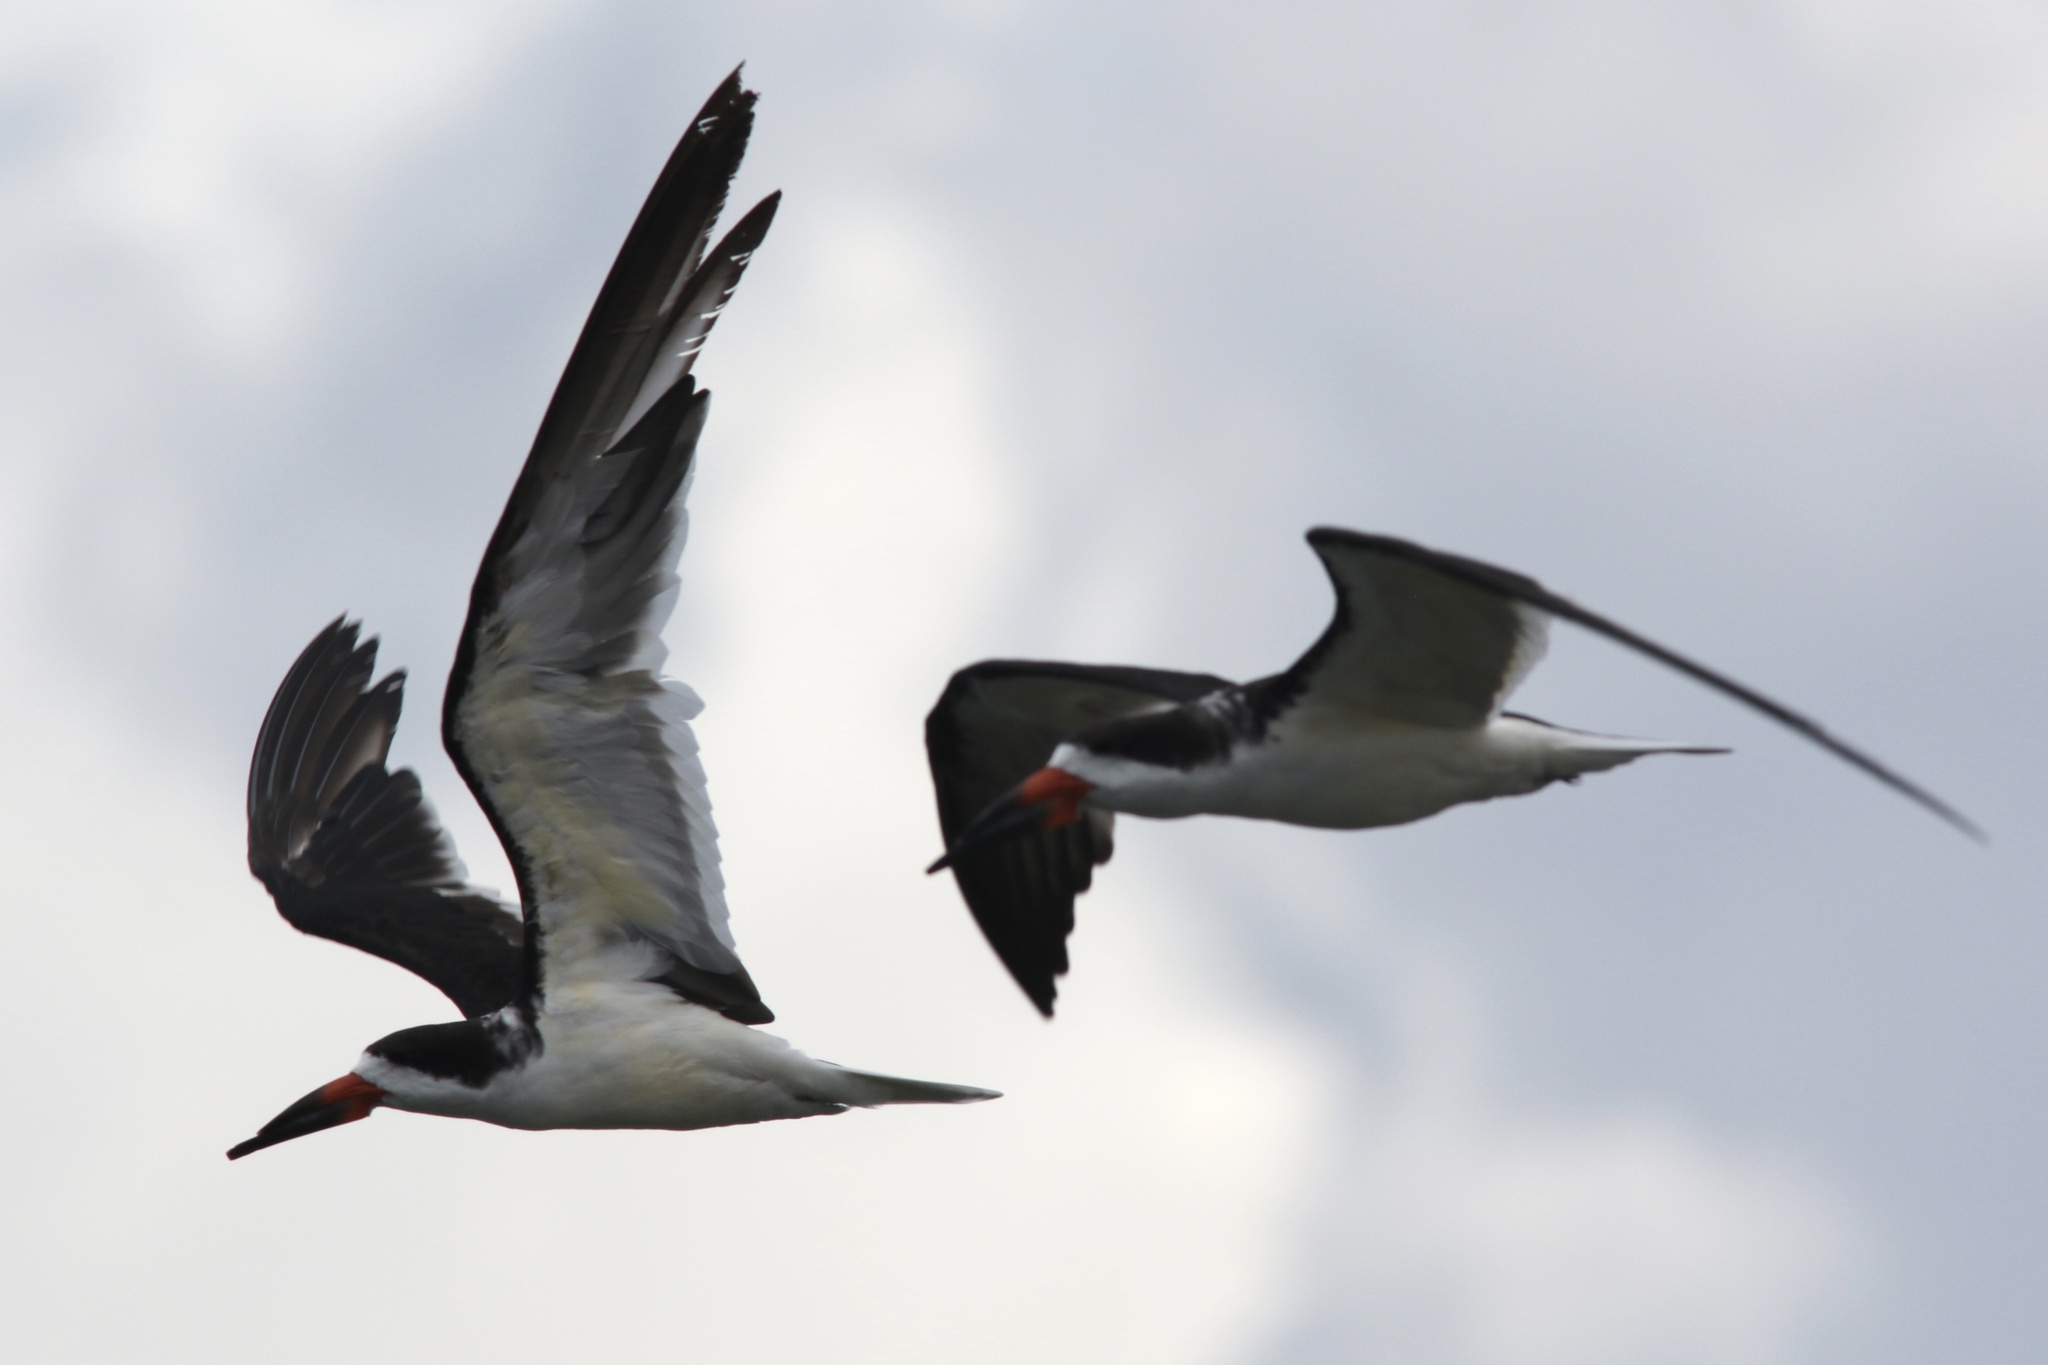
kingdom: Animalia
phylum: Chordata
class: Aves
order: Charadriiformes
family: Laridae
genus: Rynchops
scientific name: Rynchops niger
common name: Black skimmer
